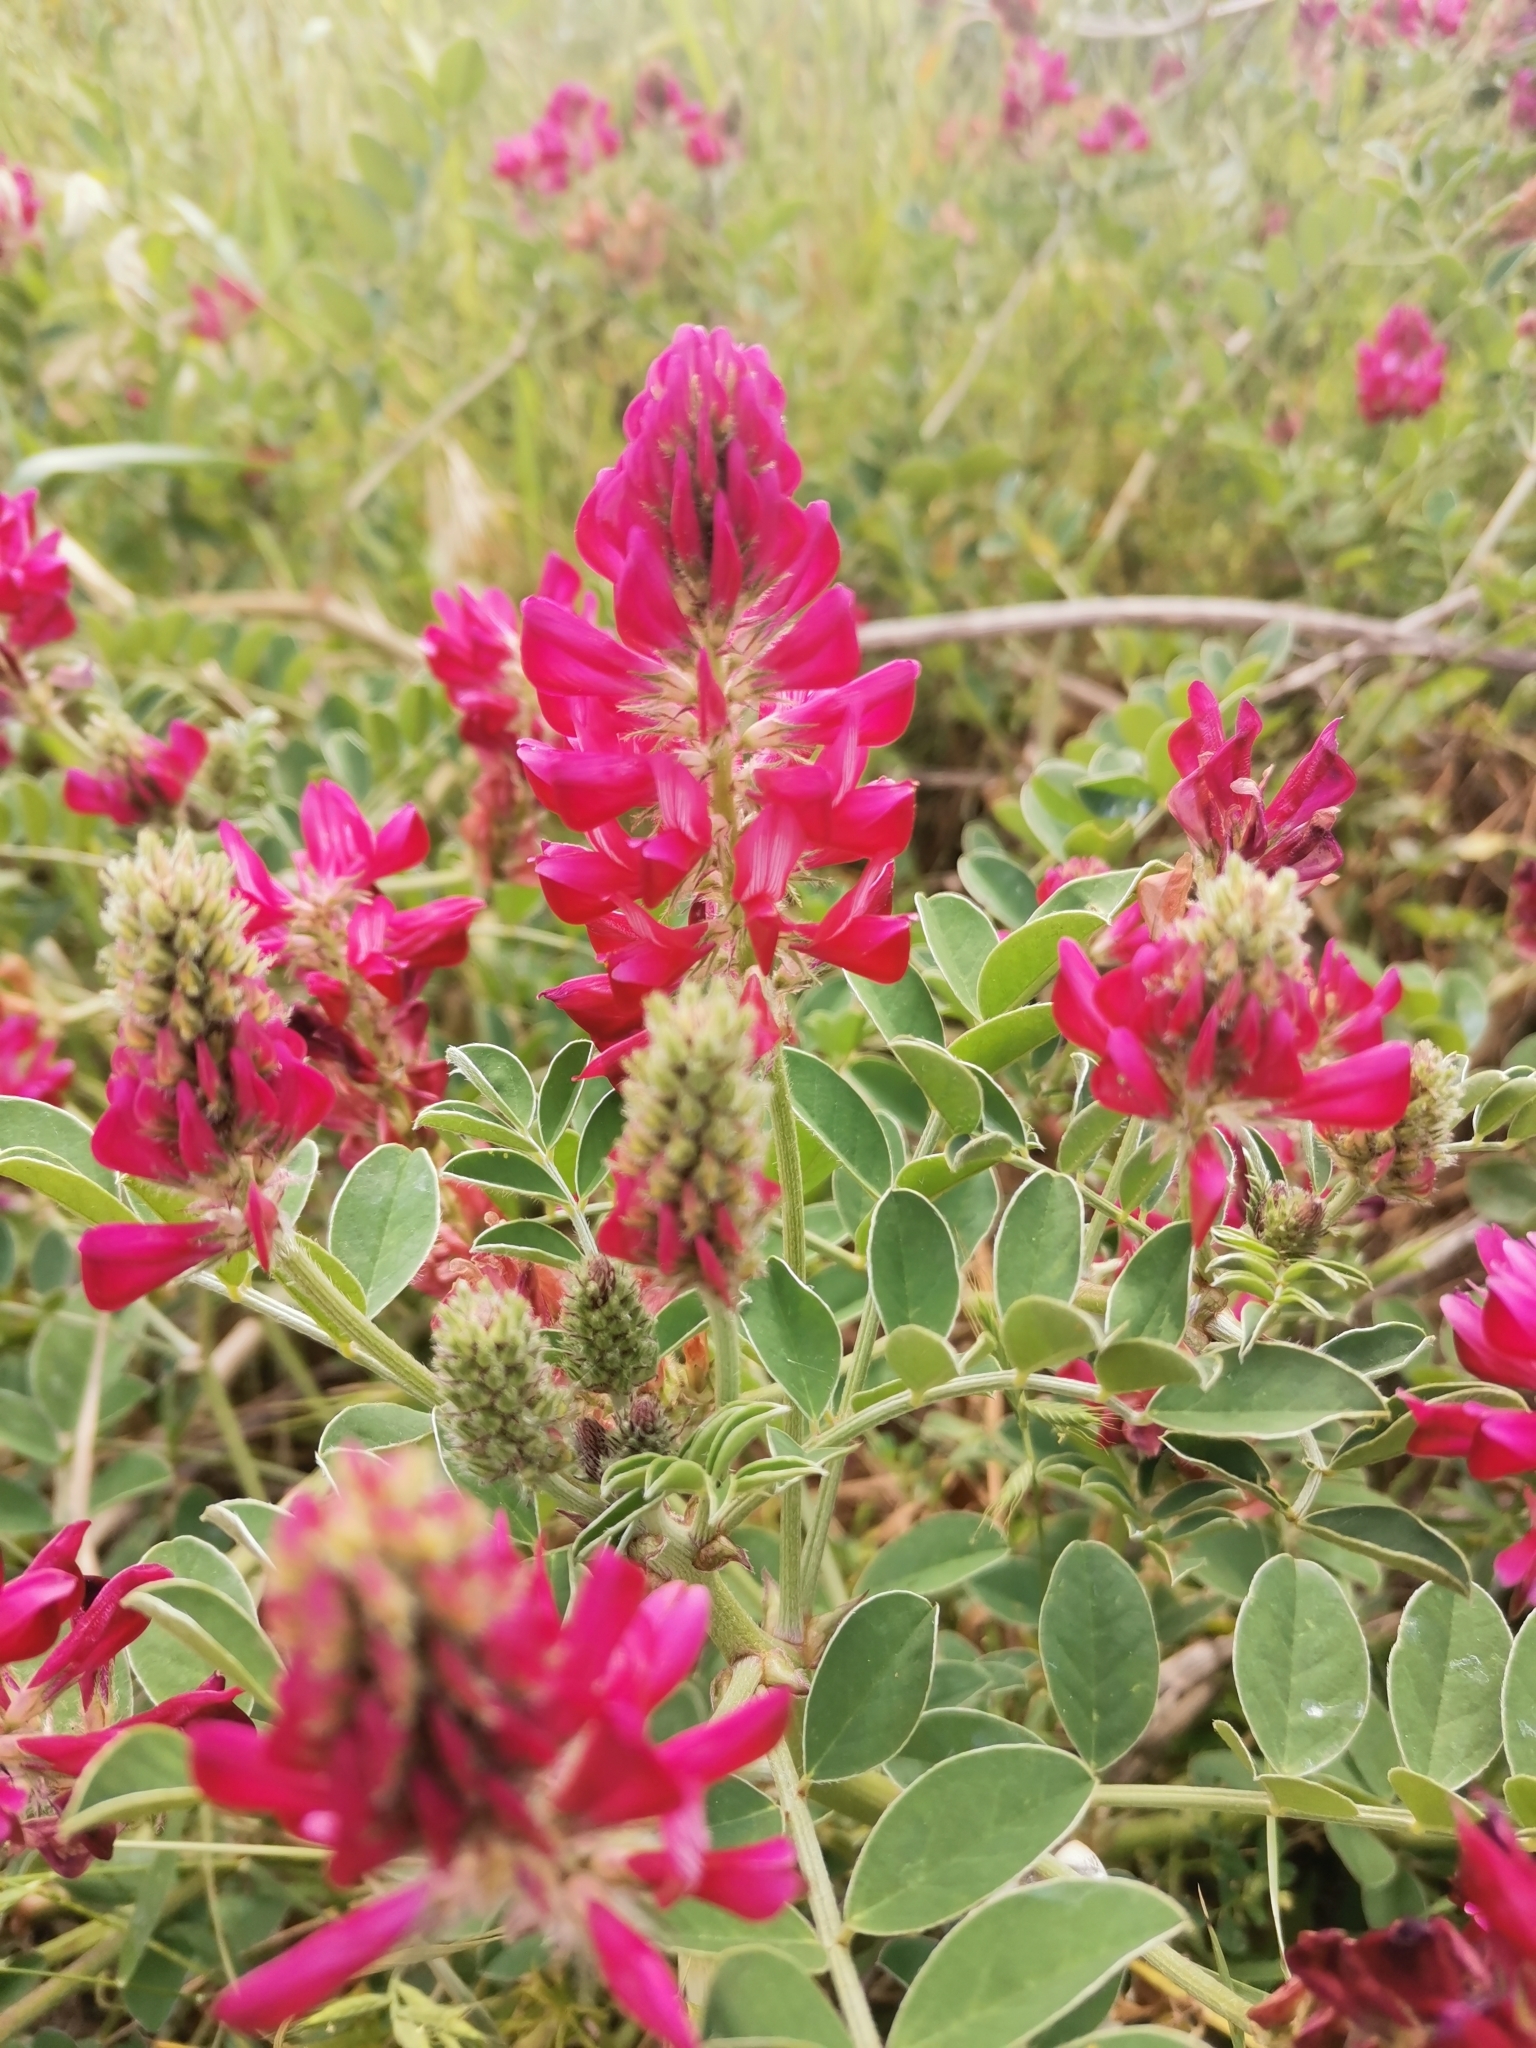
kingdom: Plantae
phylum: Tracheophyta
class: Magnoliopsida
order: Fabales
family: Fabaceae
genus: Sulla
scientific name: Sulla coronaria
